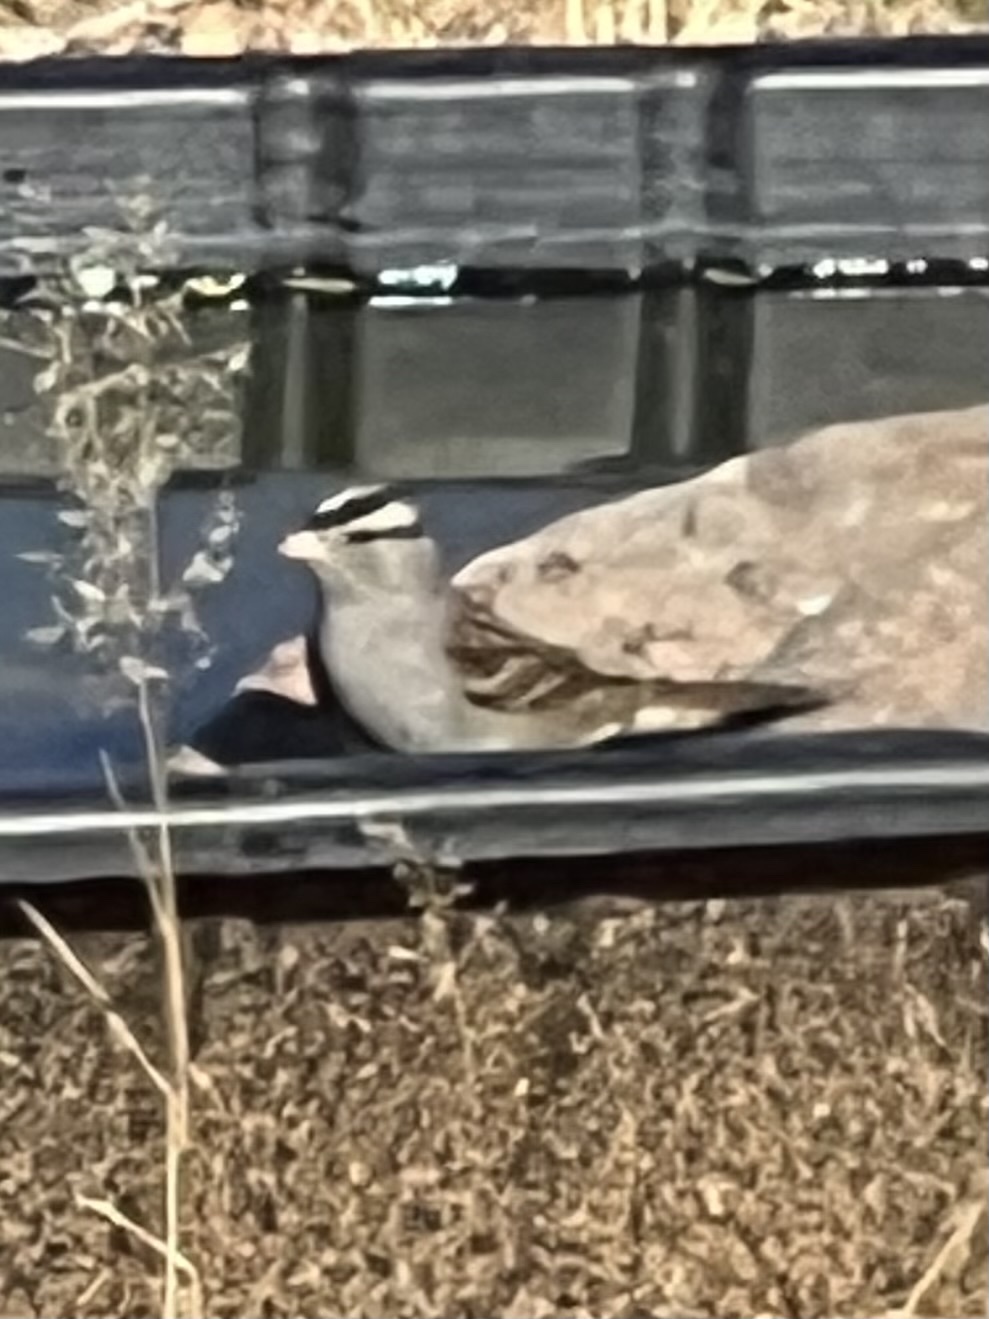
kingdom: Animalia
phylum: Chordata
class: Aves
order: Passeriformes
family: Passerellidae
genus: Zonotrichia
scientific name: Zonotrichia leucophrys
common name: White-crowned sparrow
